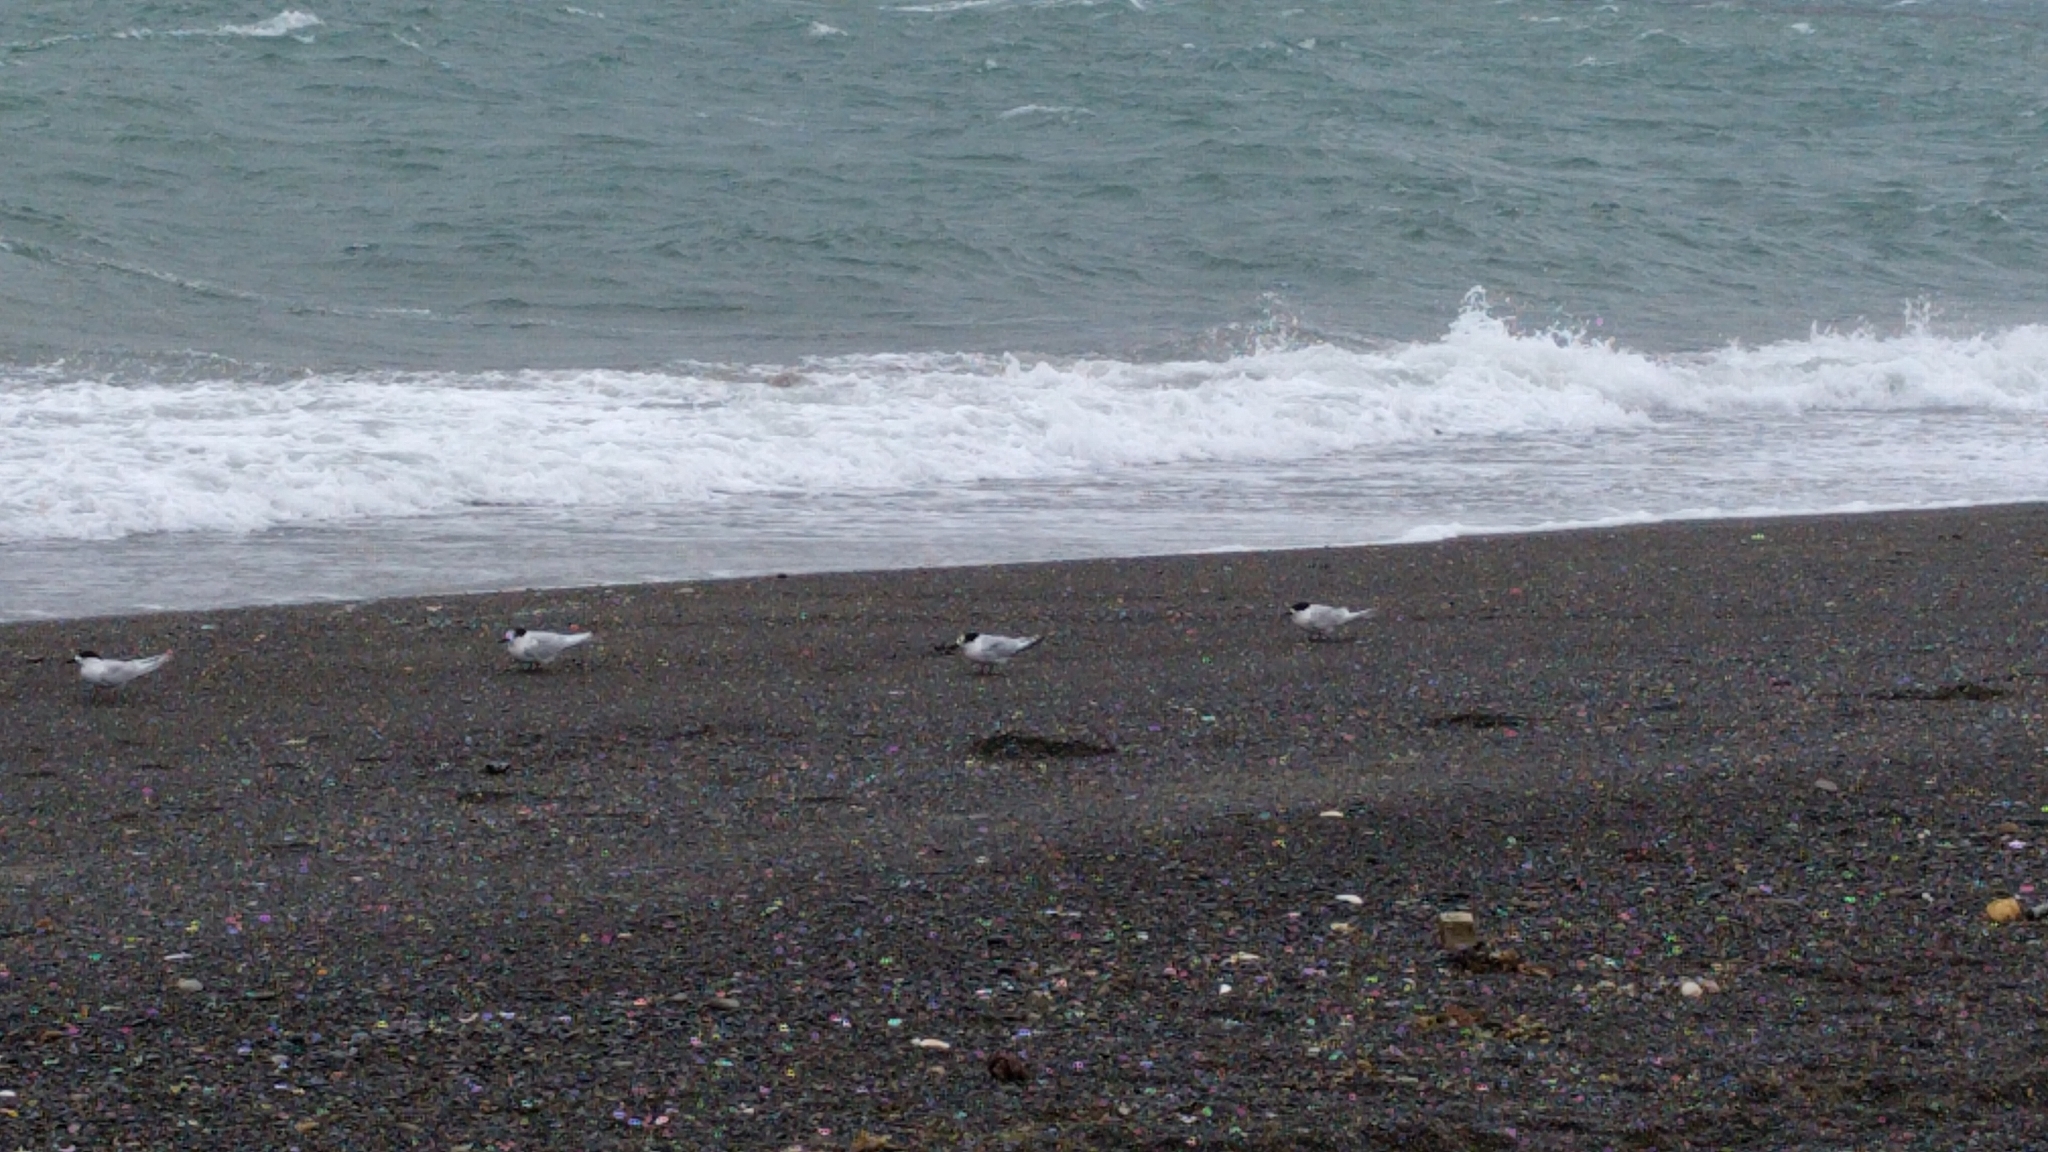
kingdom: Animalia
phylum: Chordata
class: Aves
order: Charadriiformes
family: Laridae
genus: Sterna
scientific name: Sterna striata
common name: White-fronted tern
